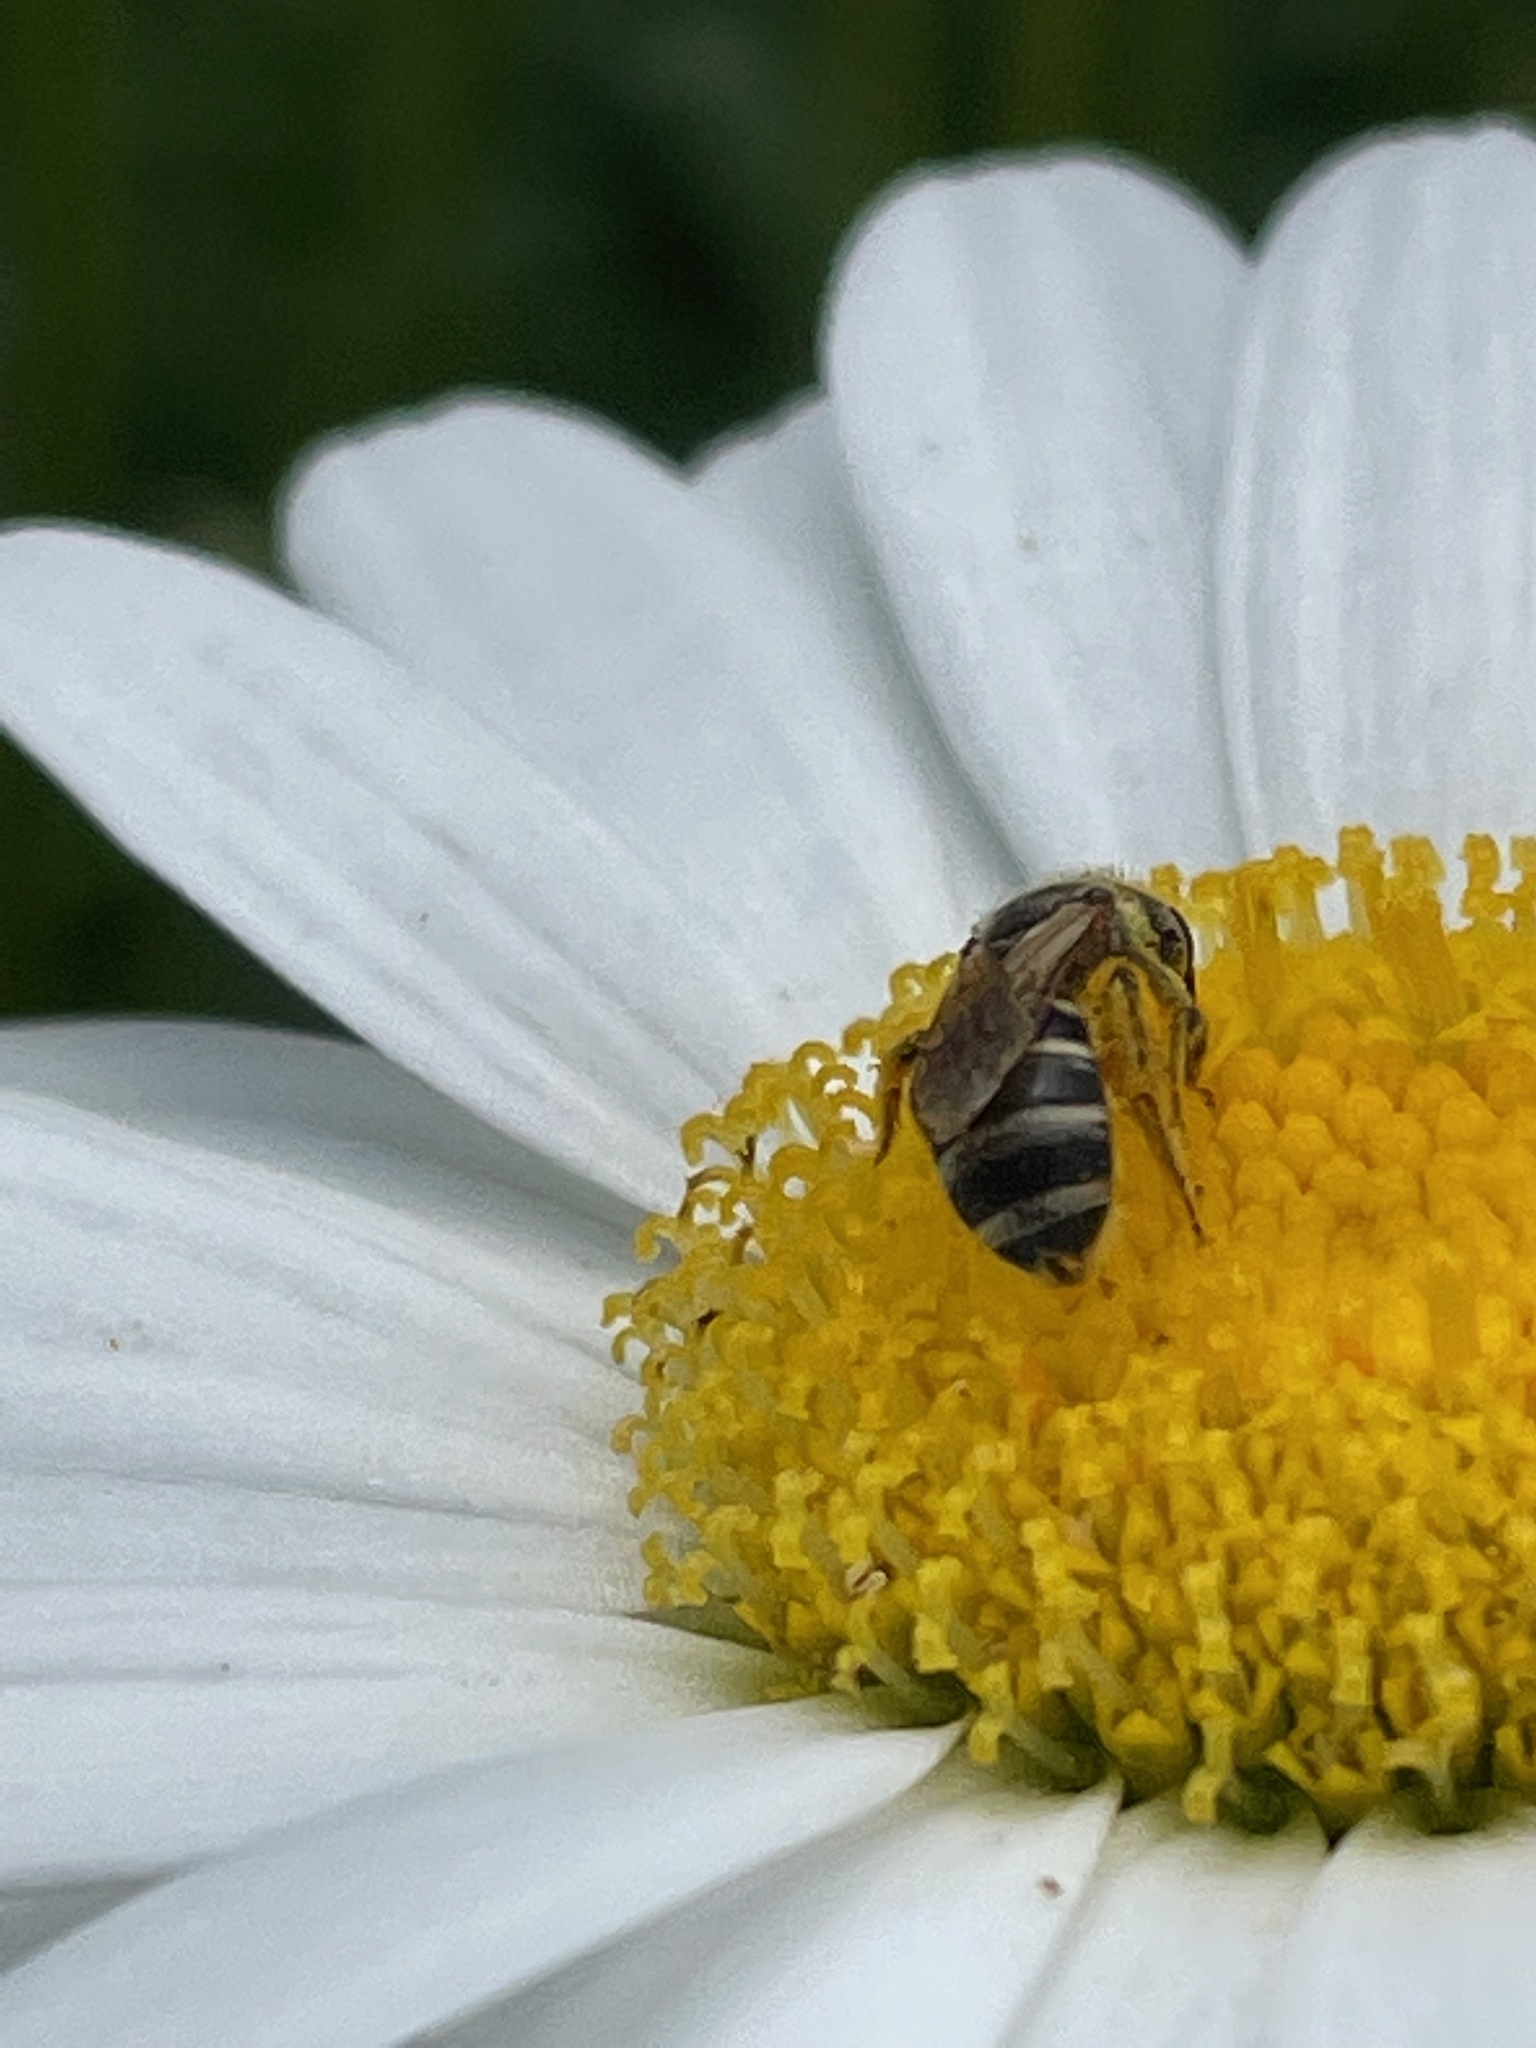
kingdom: Animalia
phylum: Arthropoda
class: Insecta
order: Hymenoptera
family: Halictidae
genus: Halictus
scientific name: Halictus ligatus
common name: Ligated furrow bee
